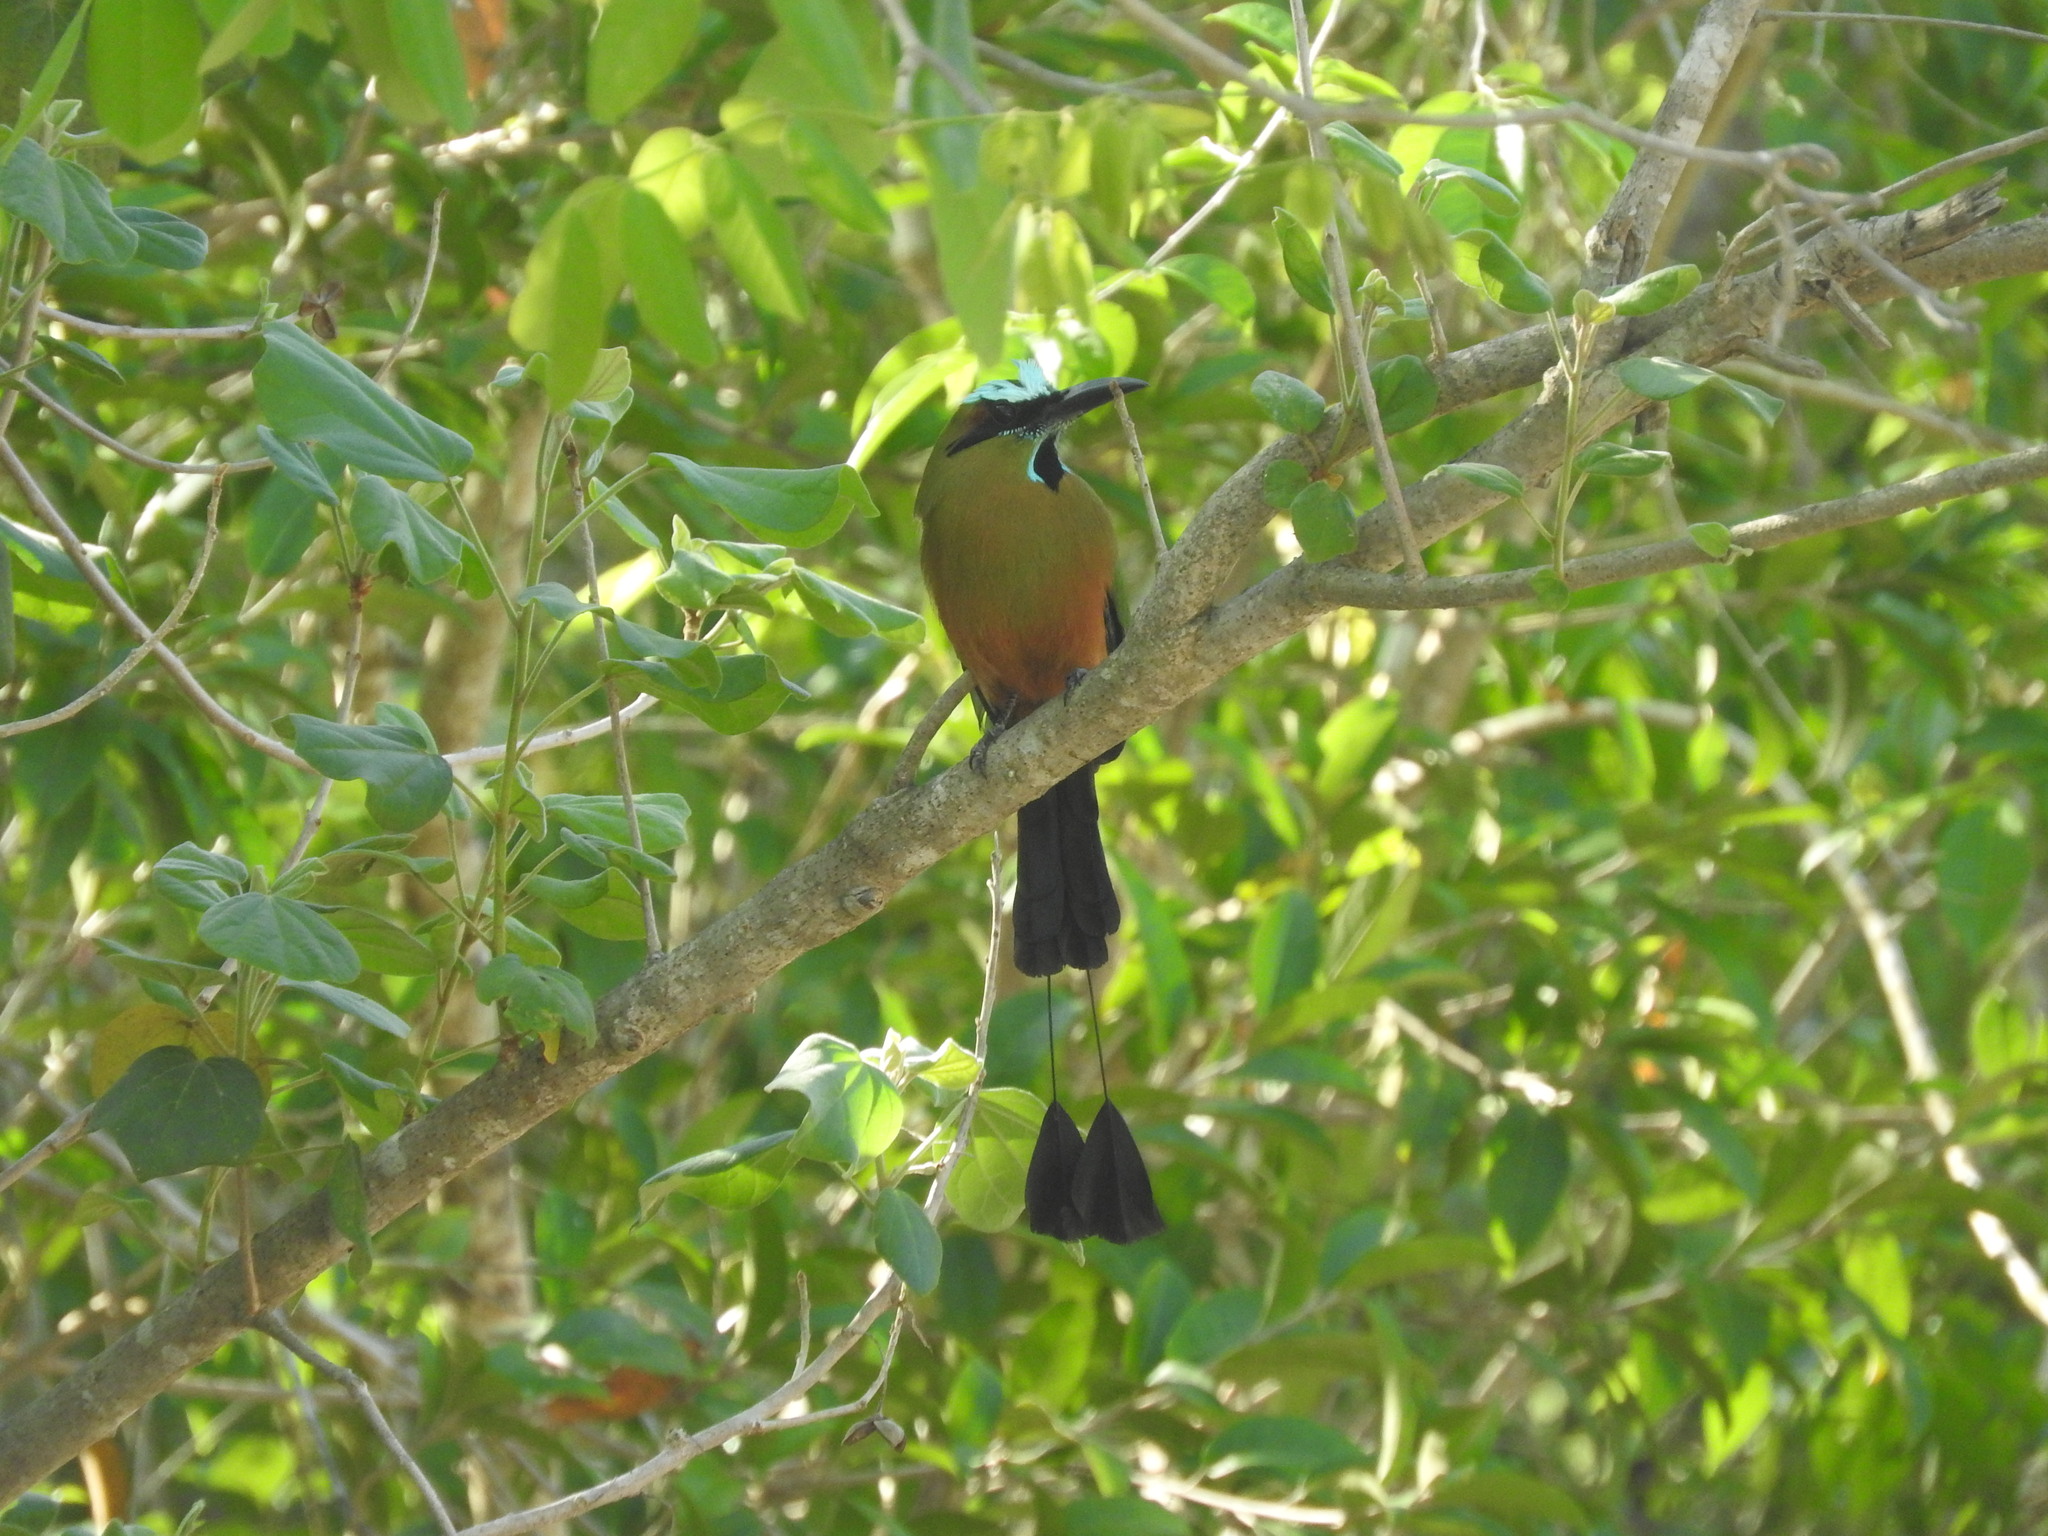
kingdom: Animalia
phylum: Chordata
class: Aves
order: Coraciiformes
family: Momotidae
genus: Eumomota
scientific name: Eumomota superciliosa
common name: Turquoise-browed motmot
